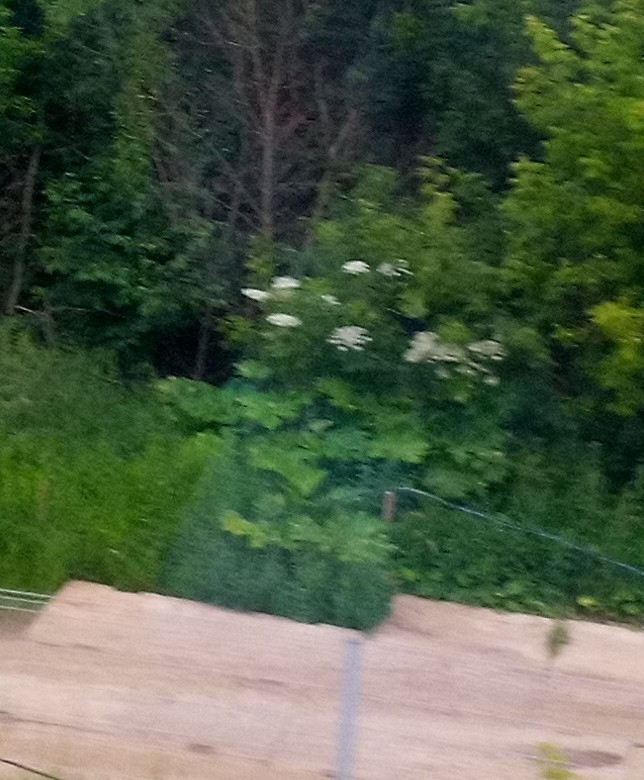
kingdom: Plantae
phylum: Tracheophyta
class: Magnoliopsida
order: Apiales
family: Apiaceae
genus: Heracleum
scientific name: Heracleum sosnowskyi
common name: Sosnowsky's hogweed
